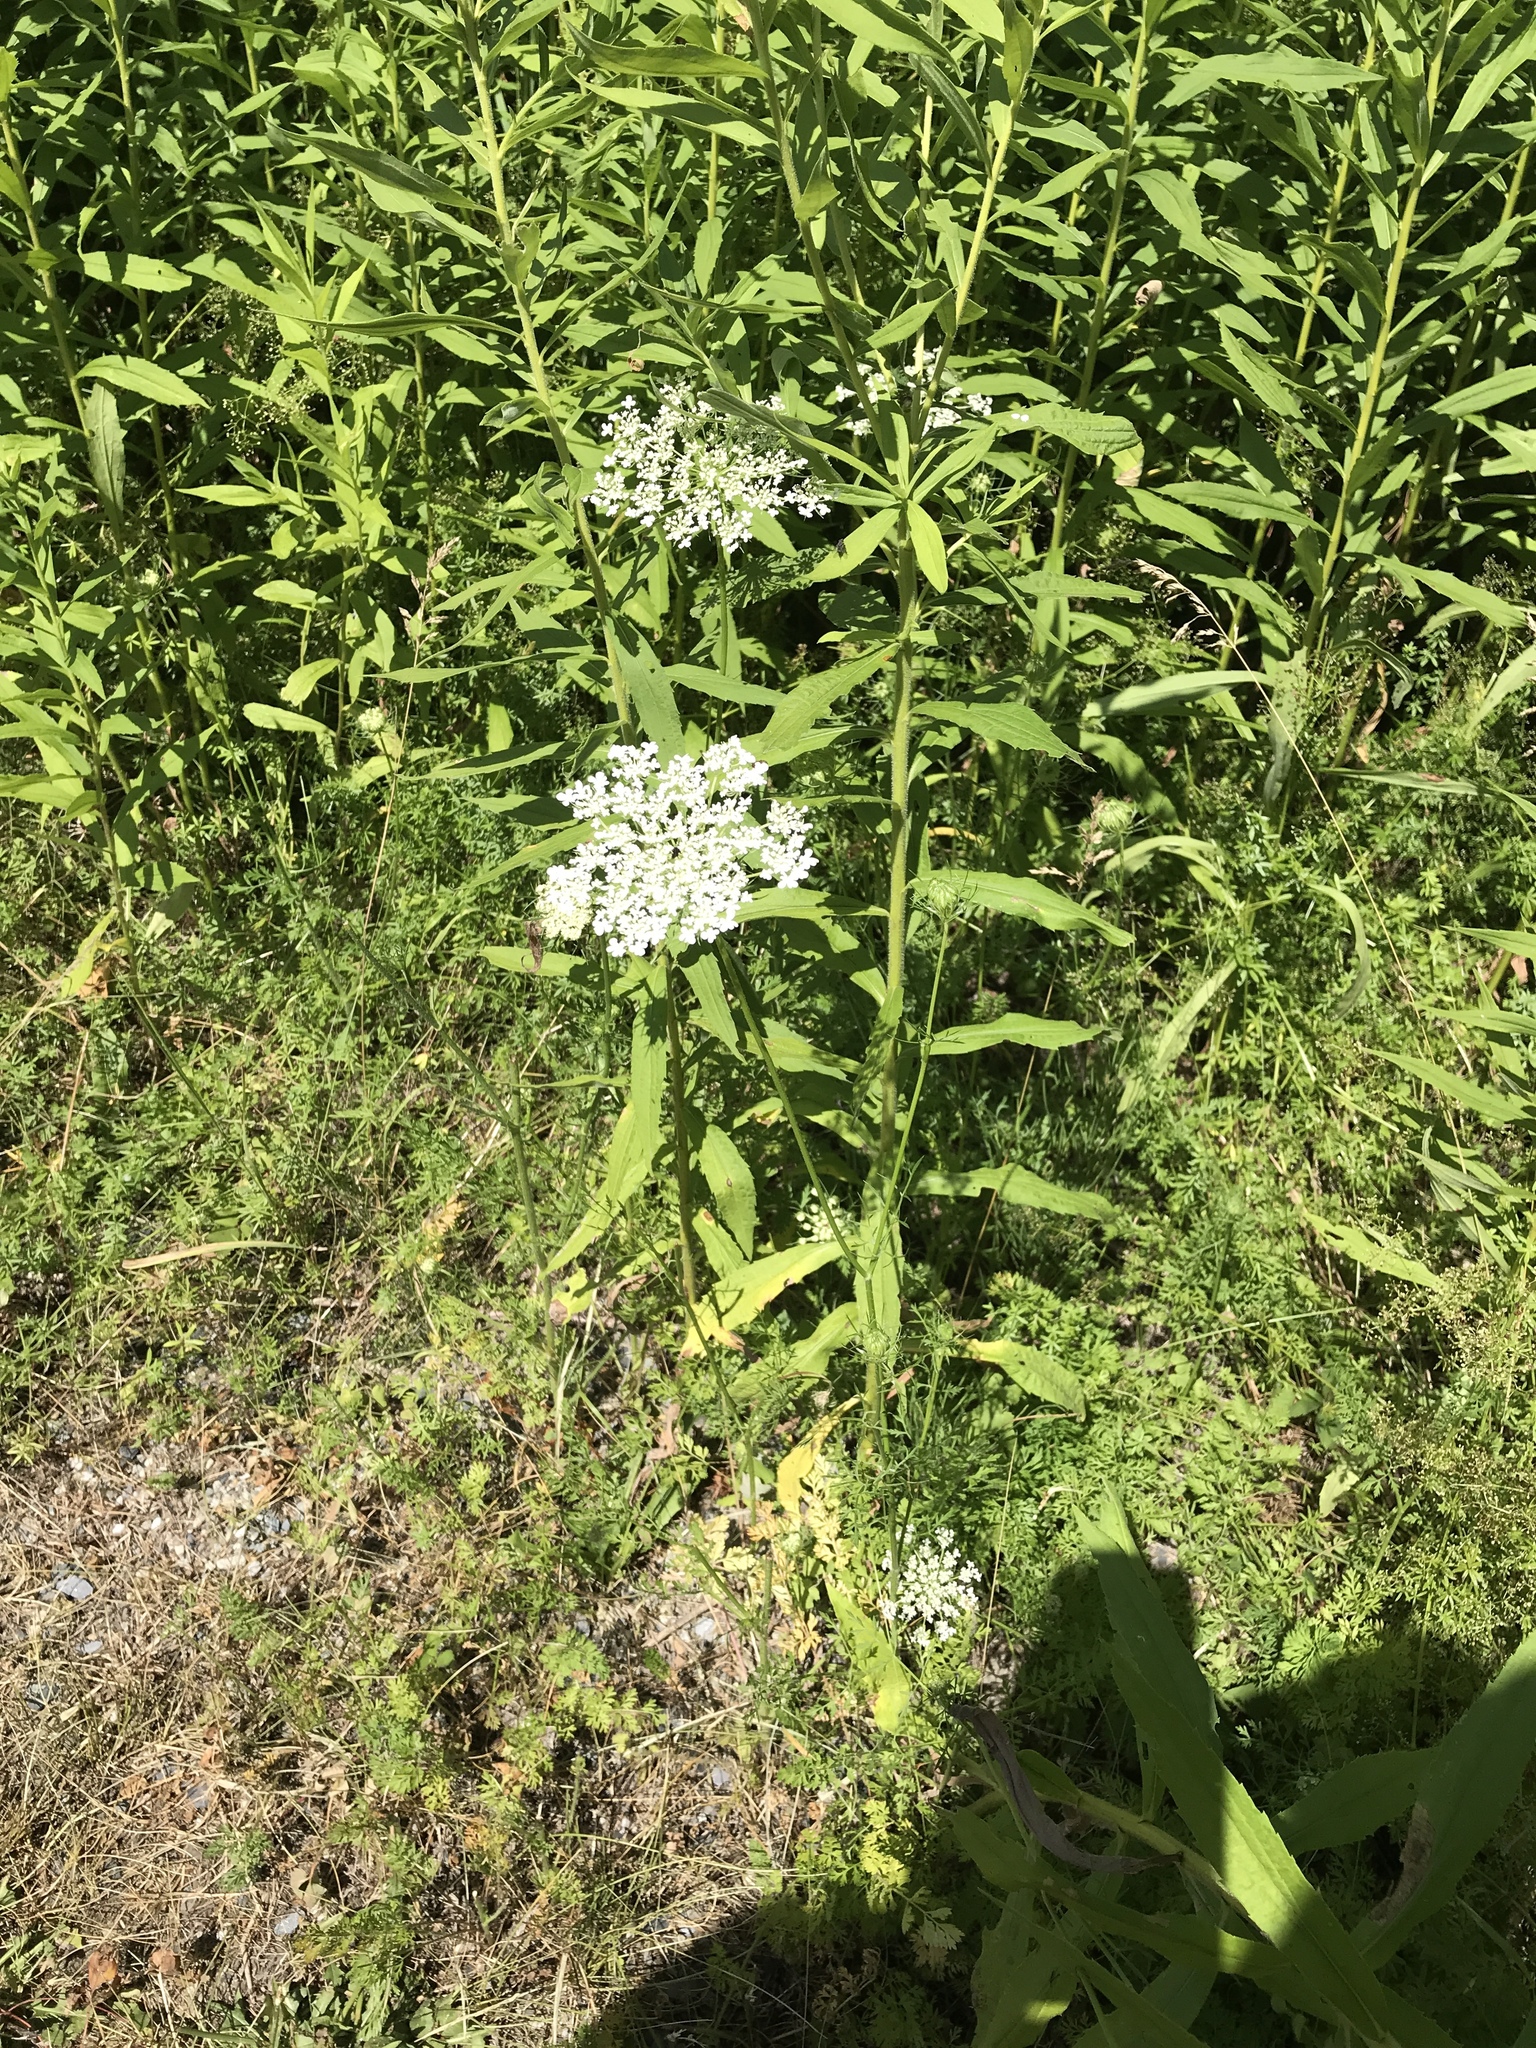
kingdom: Plantae
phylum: Tracheophyta
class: Magnoliopsida
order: Apiales
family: Apiaceae
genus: Daucus
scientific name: Daucus carota
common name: Wild carrot
